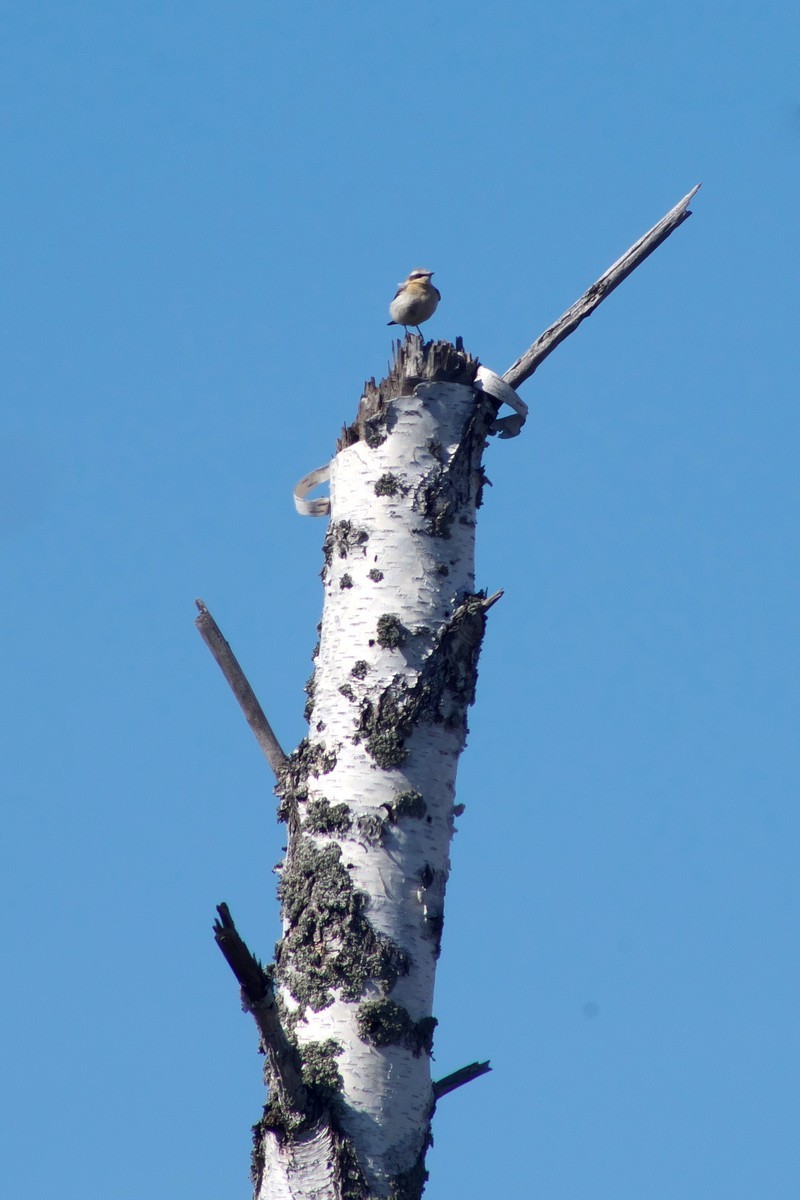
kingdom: Animalia
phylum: Chordata
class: Aves
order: Passeriformes
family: Muscicapidae
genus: Oenanthe
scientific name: Oenanthe oenanthe
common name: Northern wheatear
